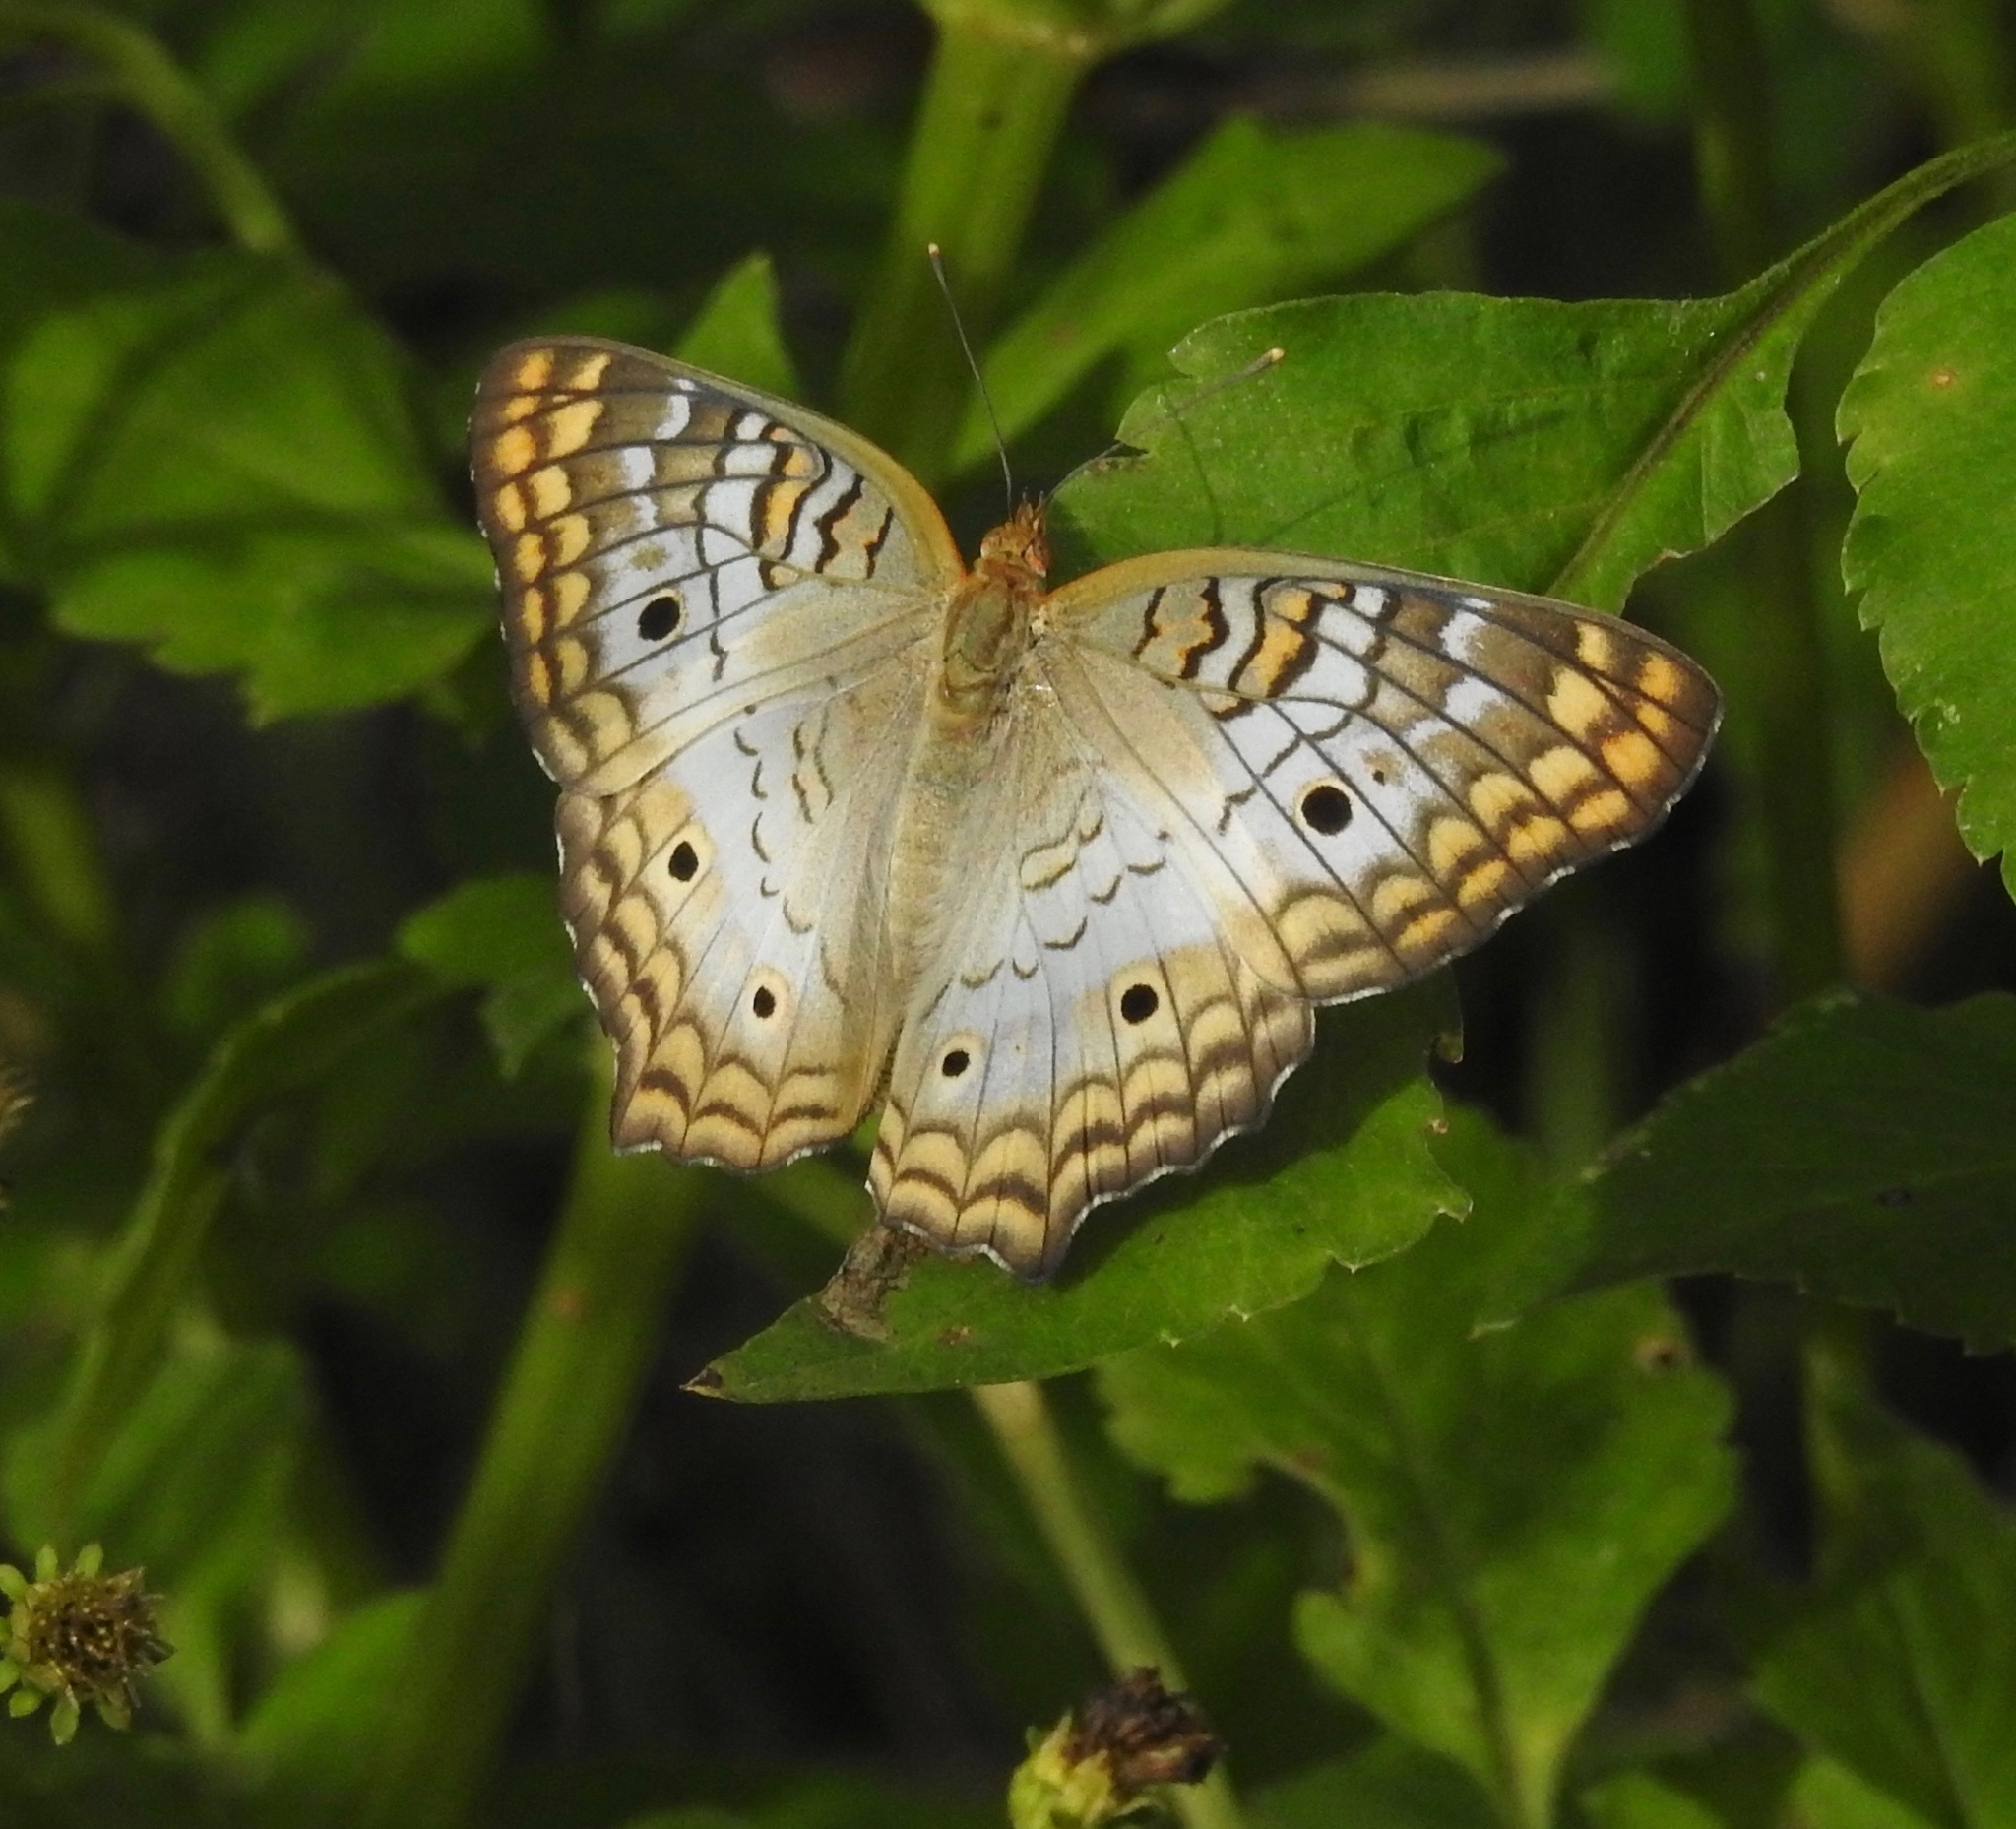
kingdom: Animalia
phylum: Arthropoda
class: Insecta
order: Lepidoptera
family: Nymphalidae
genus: Anartia
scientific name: Anartia jatrophae
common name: White peacock
